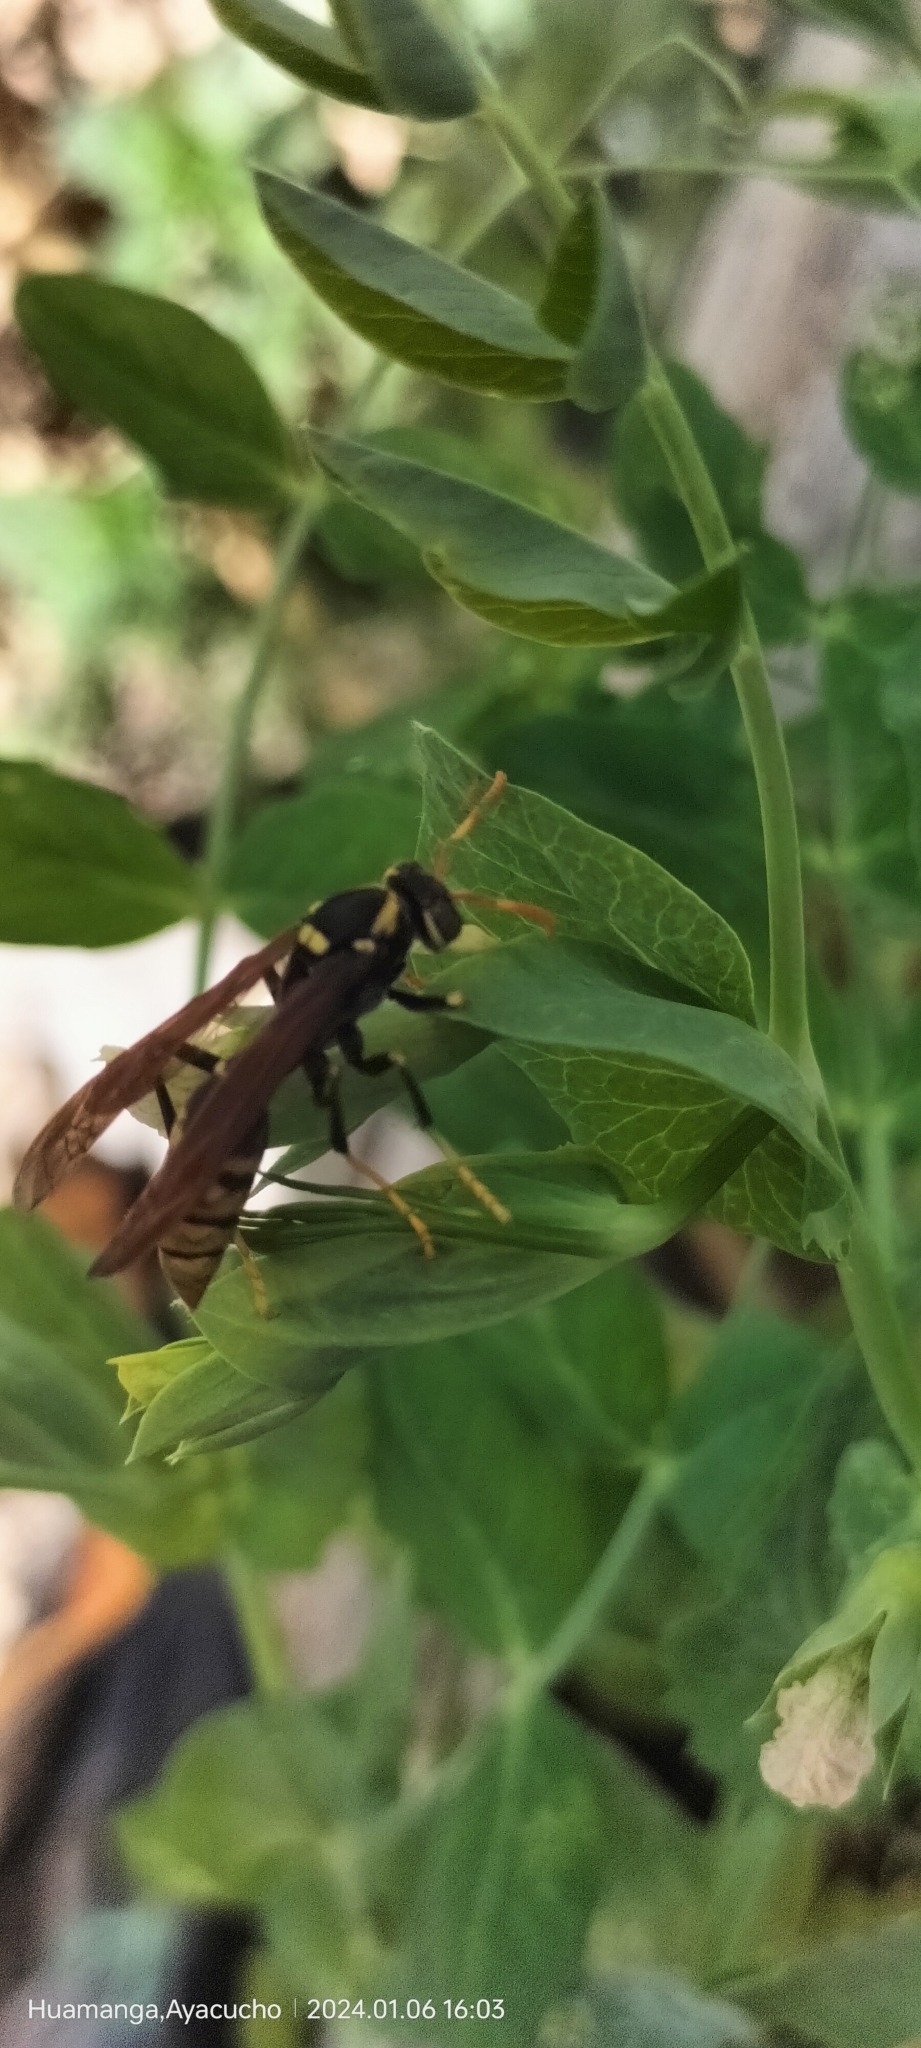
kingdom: Animalia
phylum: Arthropoda
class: Insecta
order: Hymenoptera
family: Eumenidae
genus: Polistes
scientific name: Polistes xanthogaster
